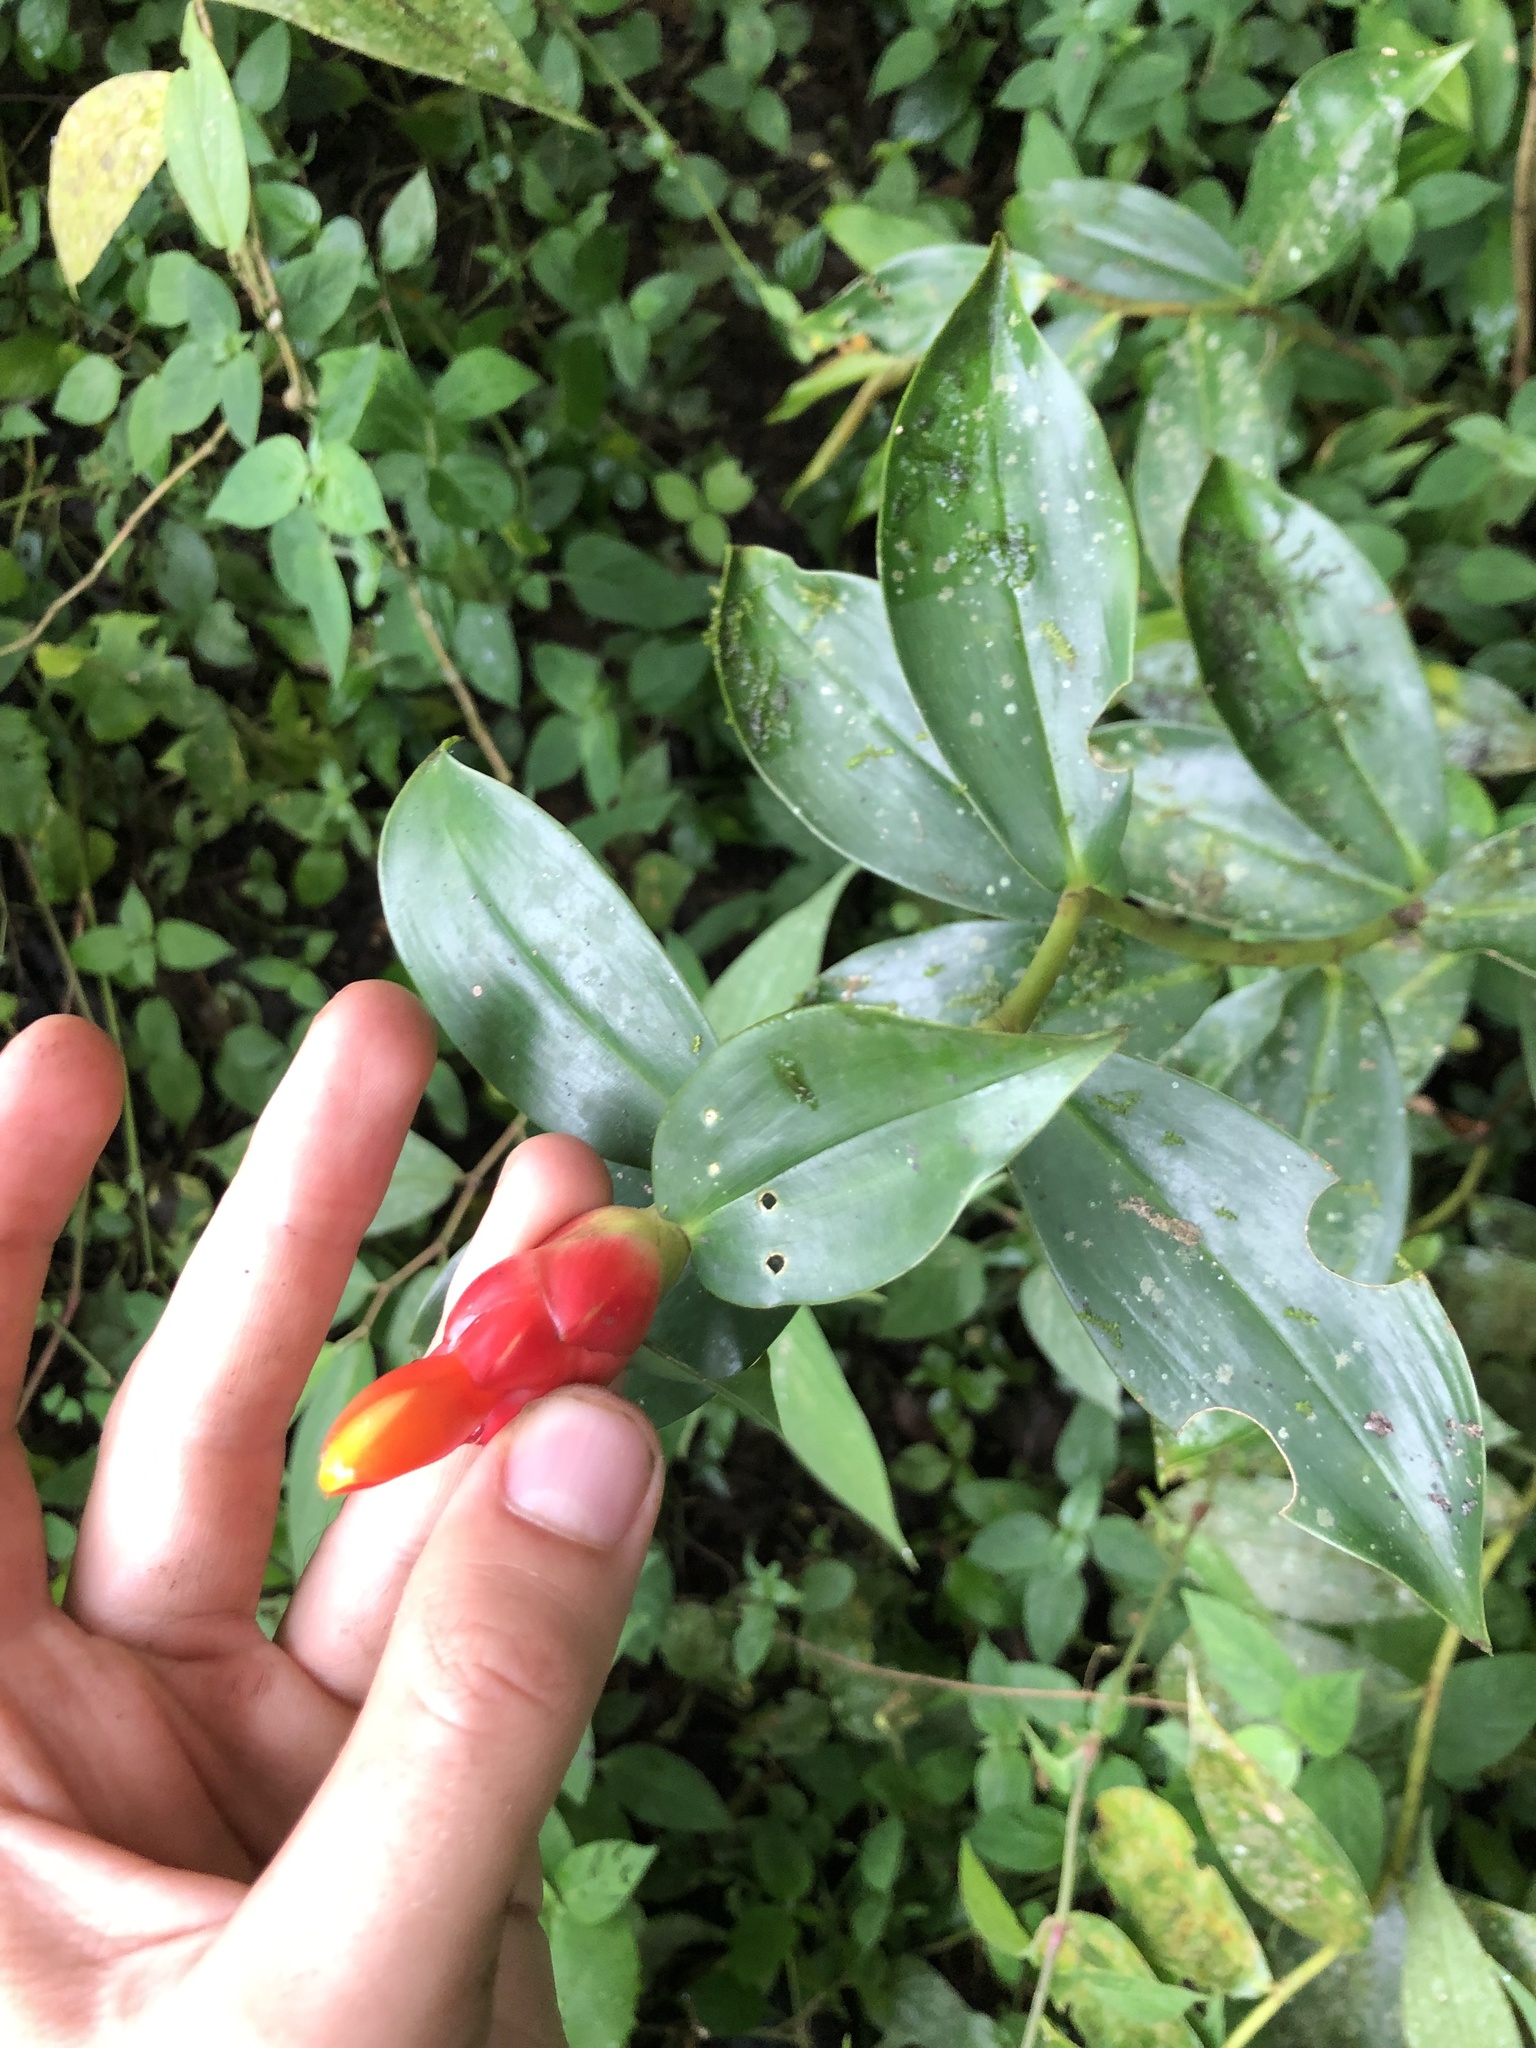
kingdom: Plantae
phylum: Tracheophyta
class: Liliopsida
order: Zingiberales
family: Costaceae
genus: Costus
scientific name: Costus woodsonii
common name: Scarlet spiral-ginger
